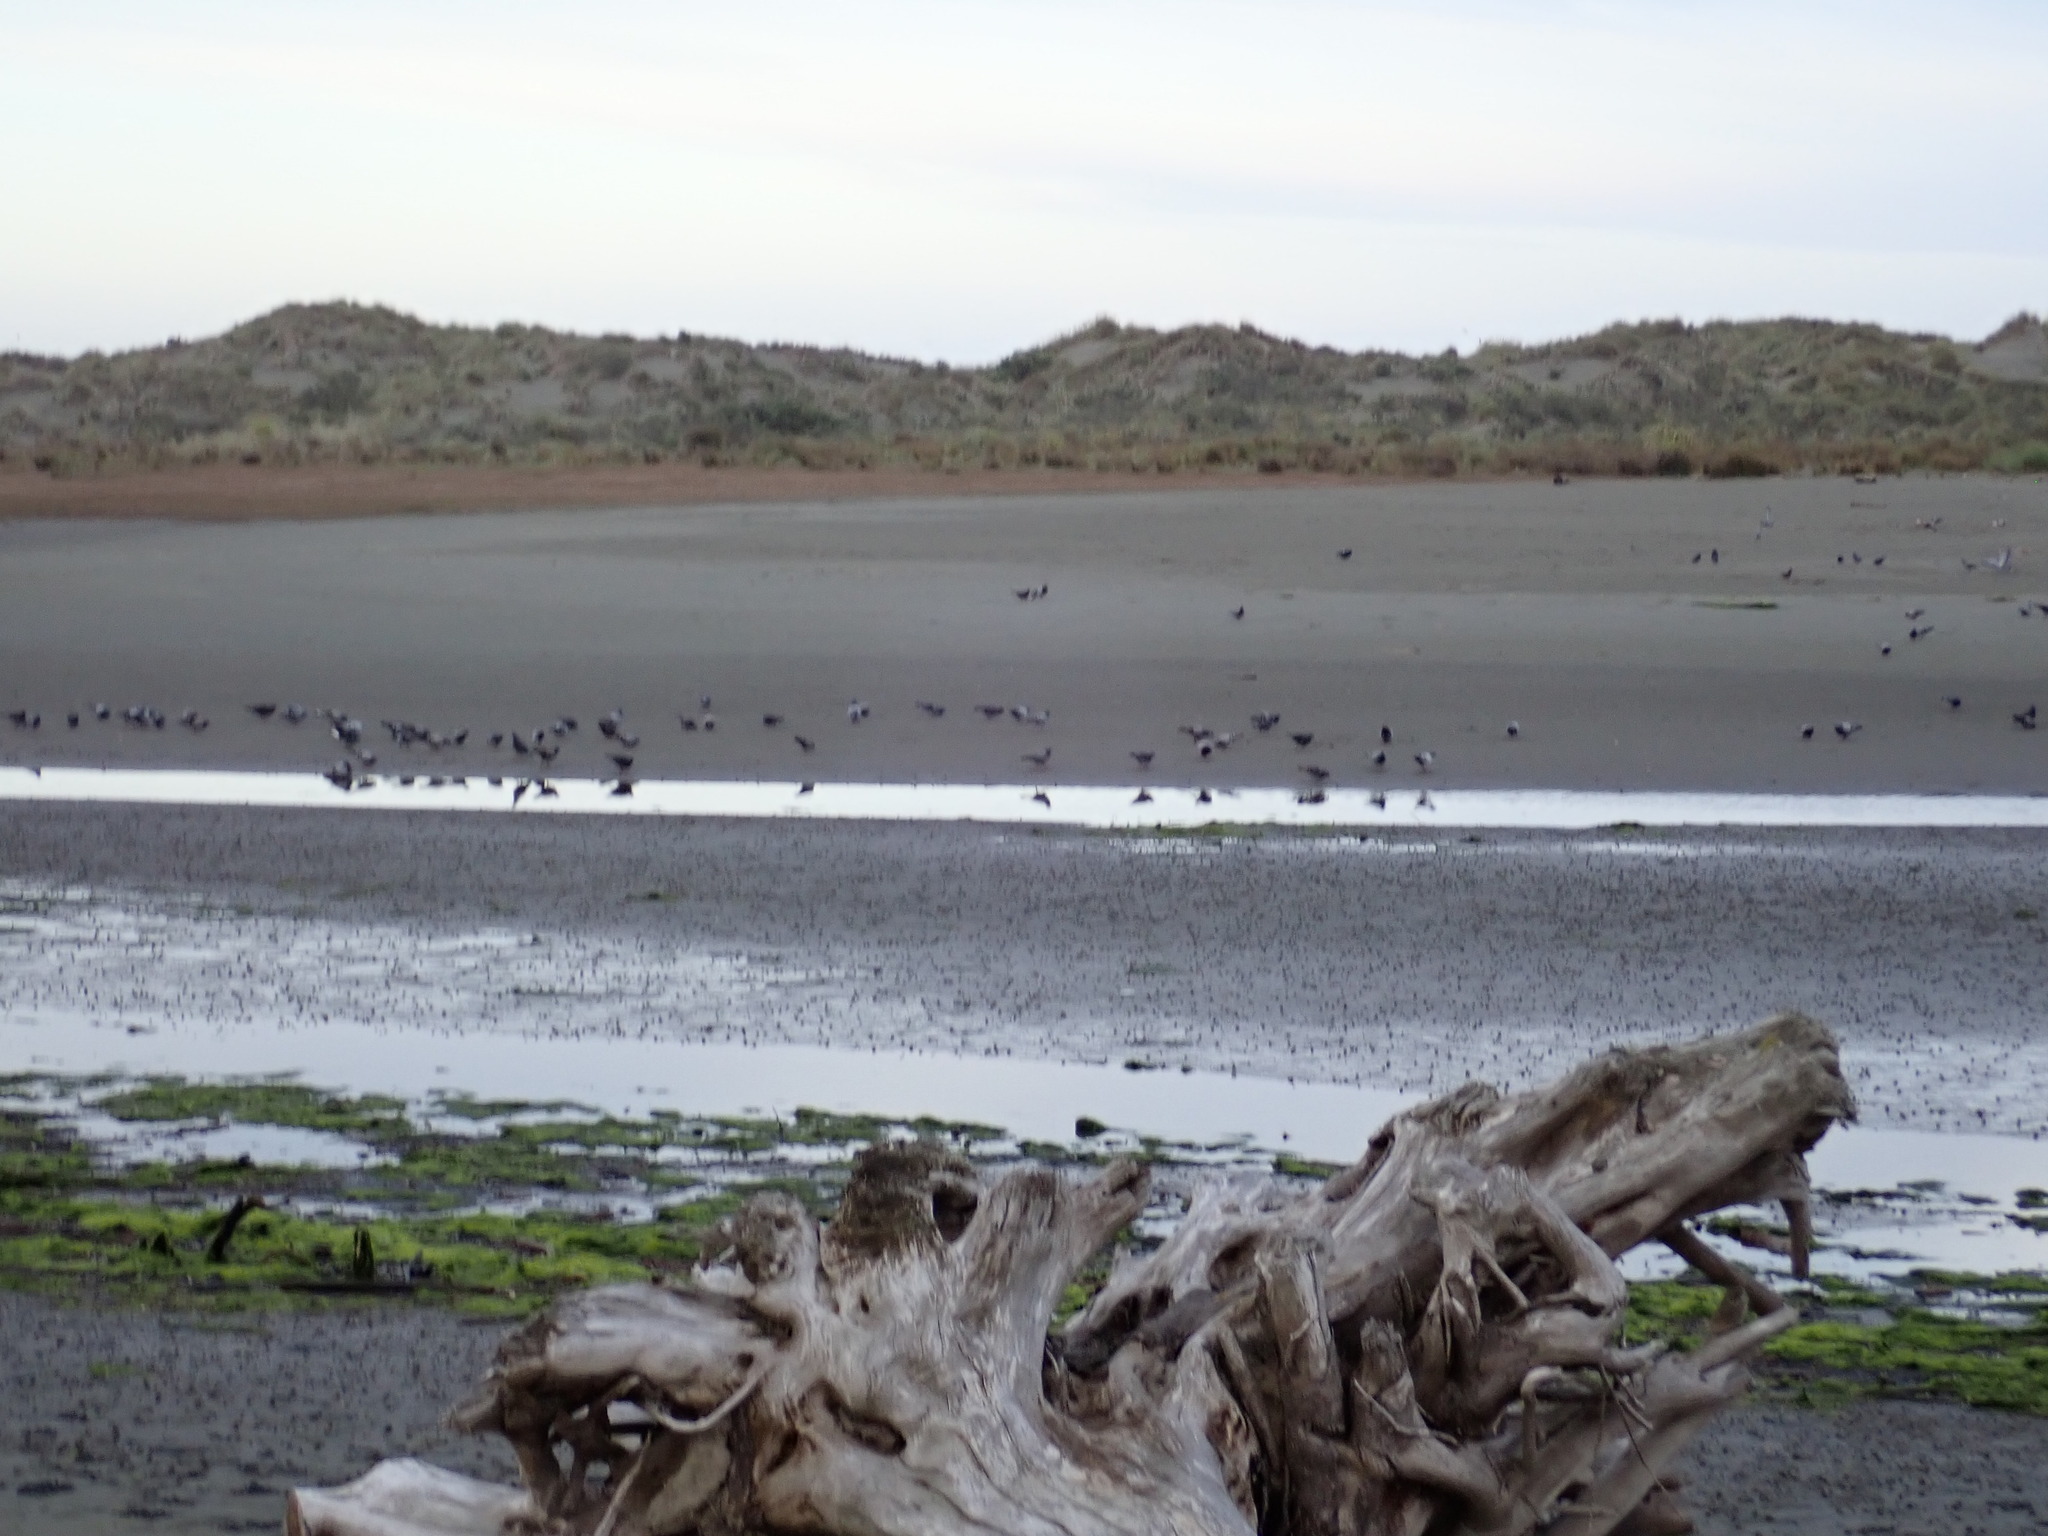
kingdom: Animalia
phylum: Chordata
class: Aves
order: Columbiformes
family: Columbidae
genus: Columba
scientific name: Columba livia
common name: Rock pigeon
